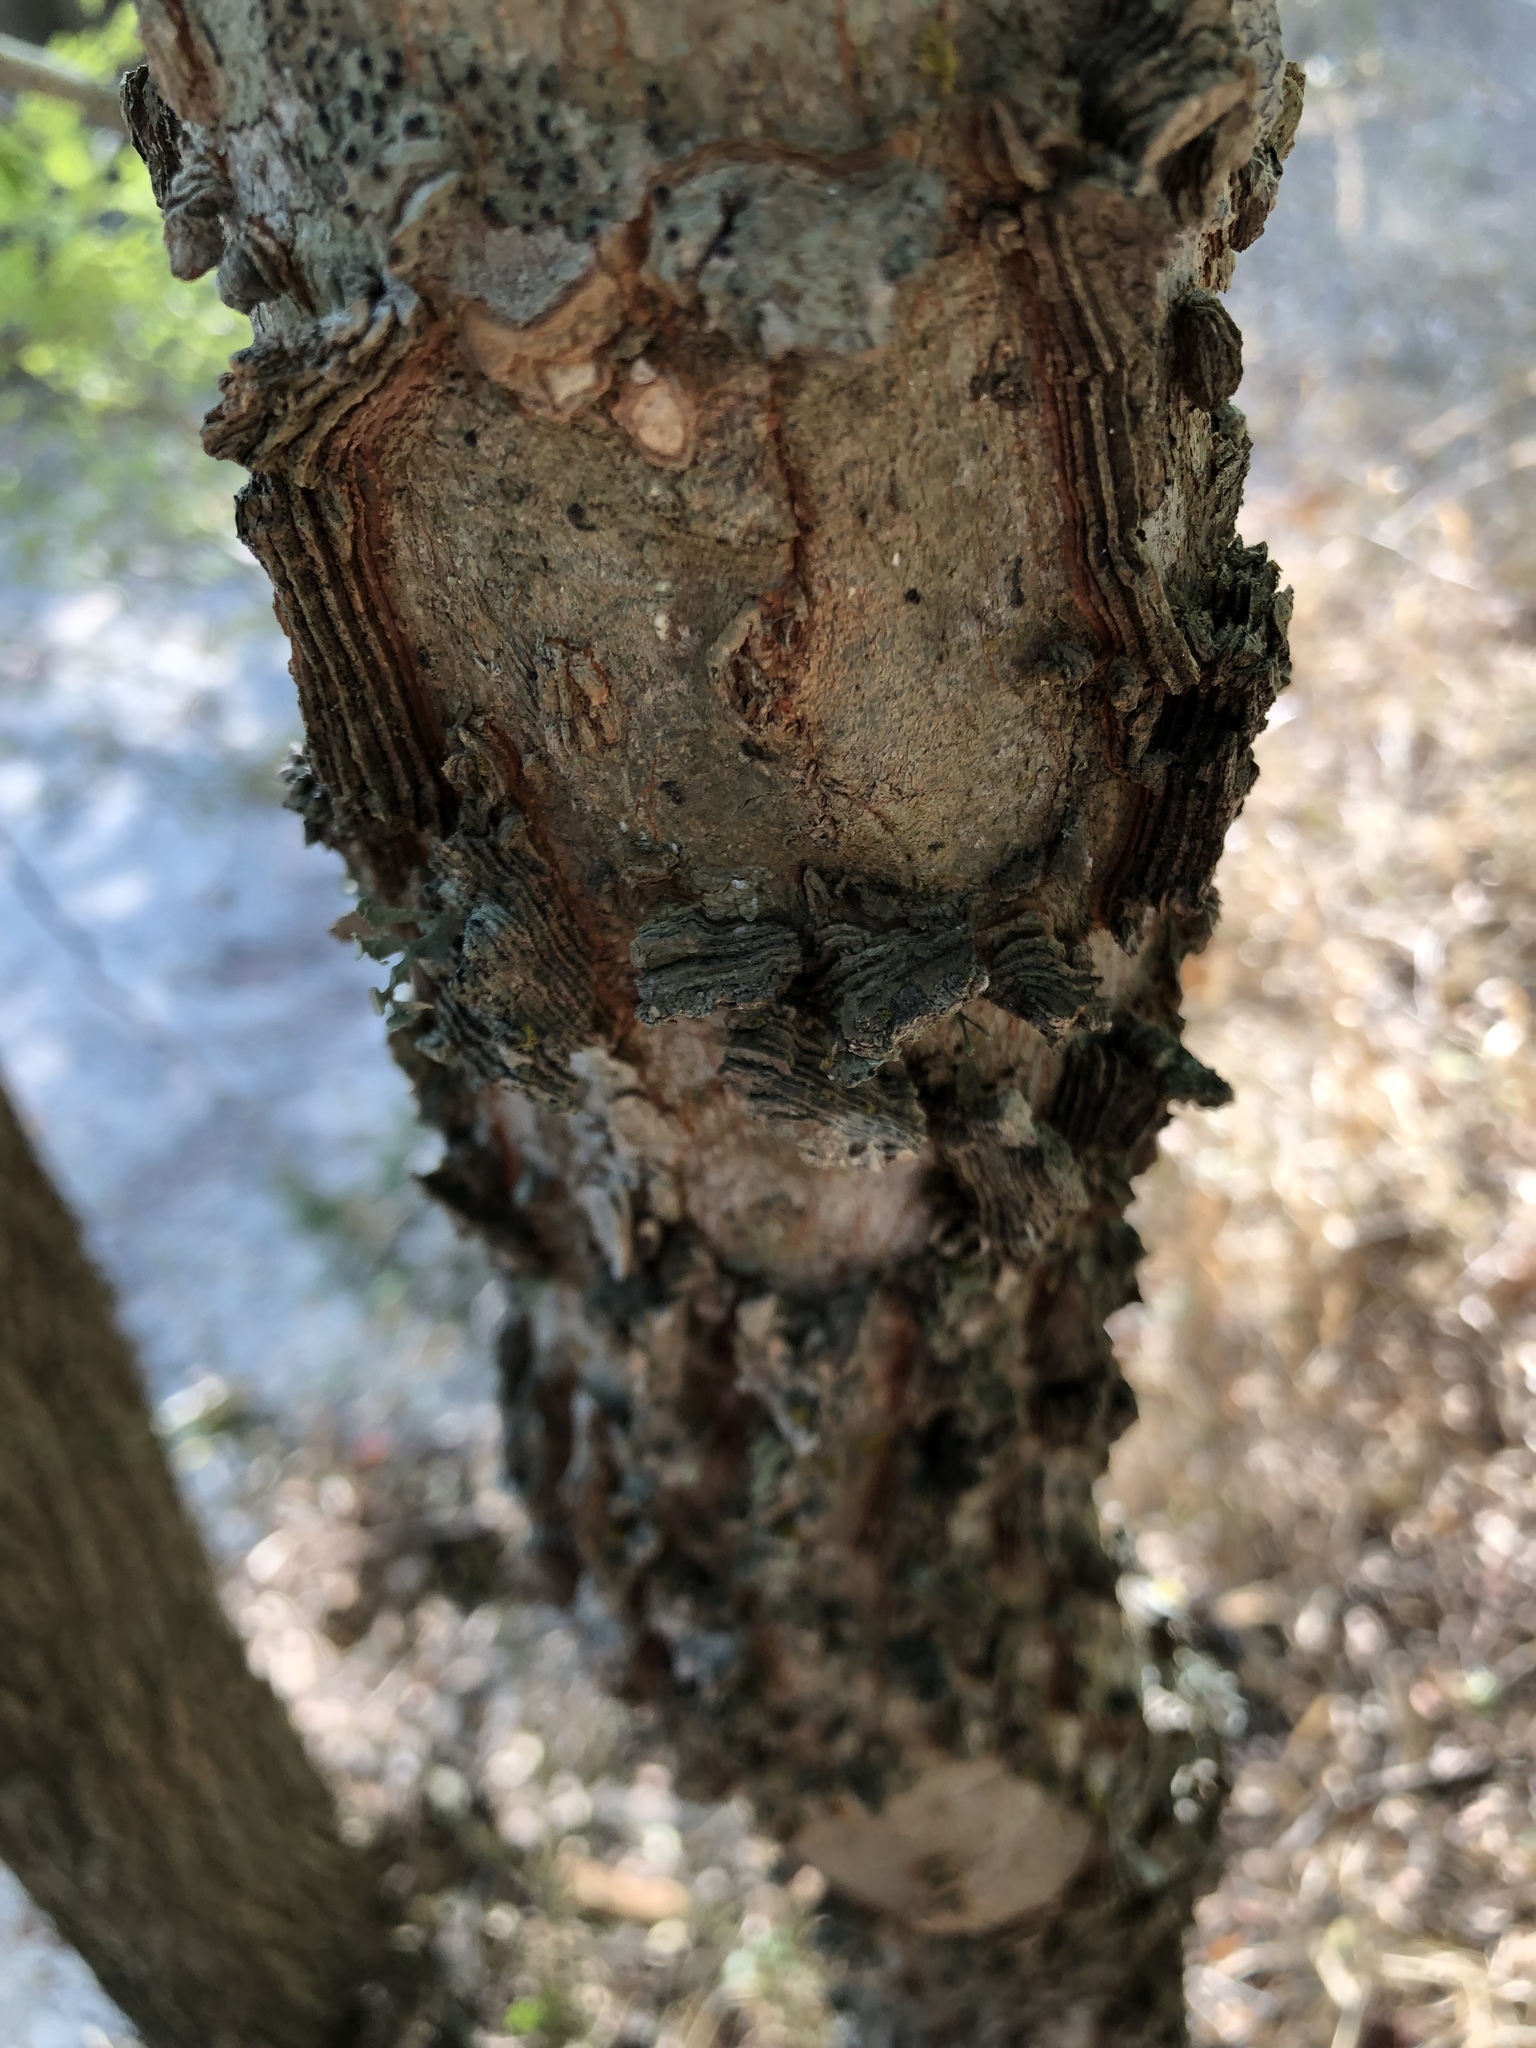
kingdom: Plantae
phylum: Tracheophyta
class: Magnoliopsida
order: Rosales
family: Cannabaceae
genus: Celtis
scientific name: Celtis laevigata
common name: Sugarberry
